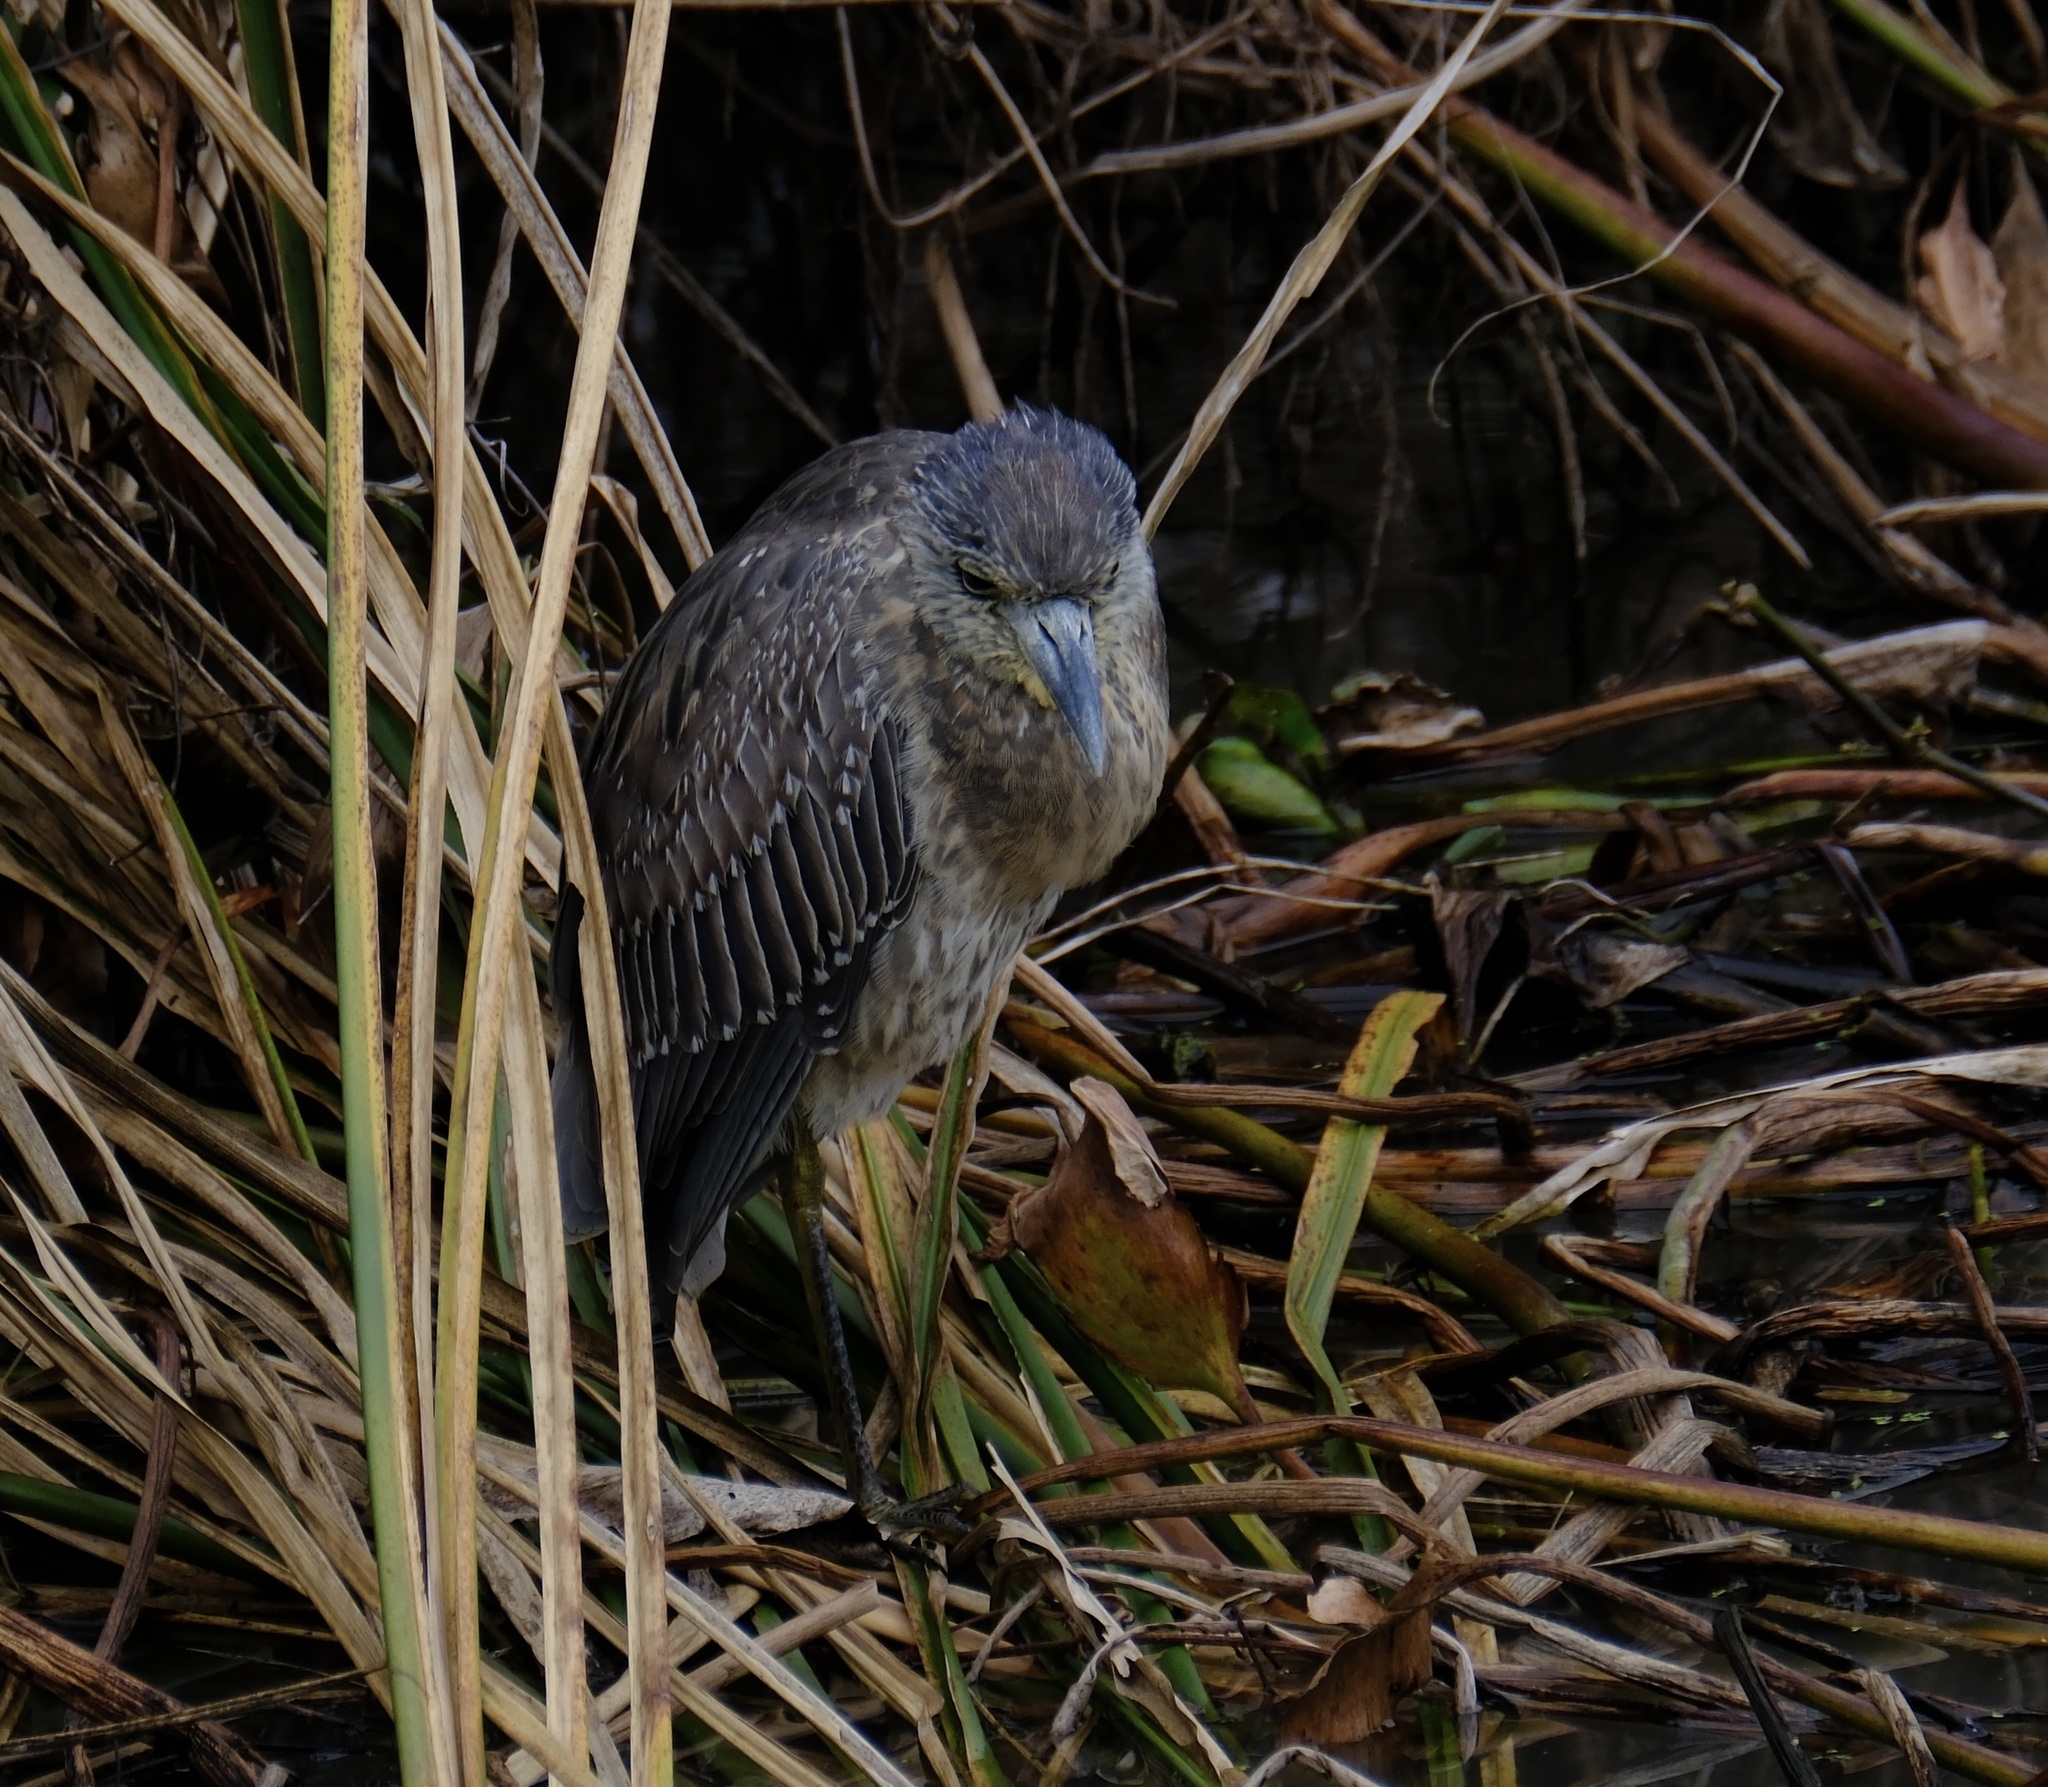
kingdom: Animalia
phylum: Chordata
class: Aves
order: Pelecaniformes
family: Ardeidae
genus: Nyctanassa
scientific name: Nyctanassa violacea
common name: Yellow-crowned night heron
